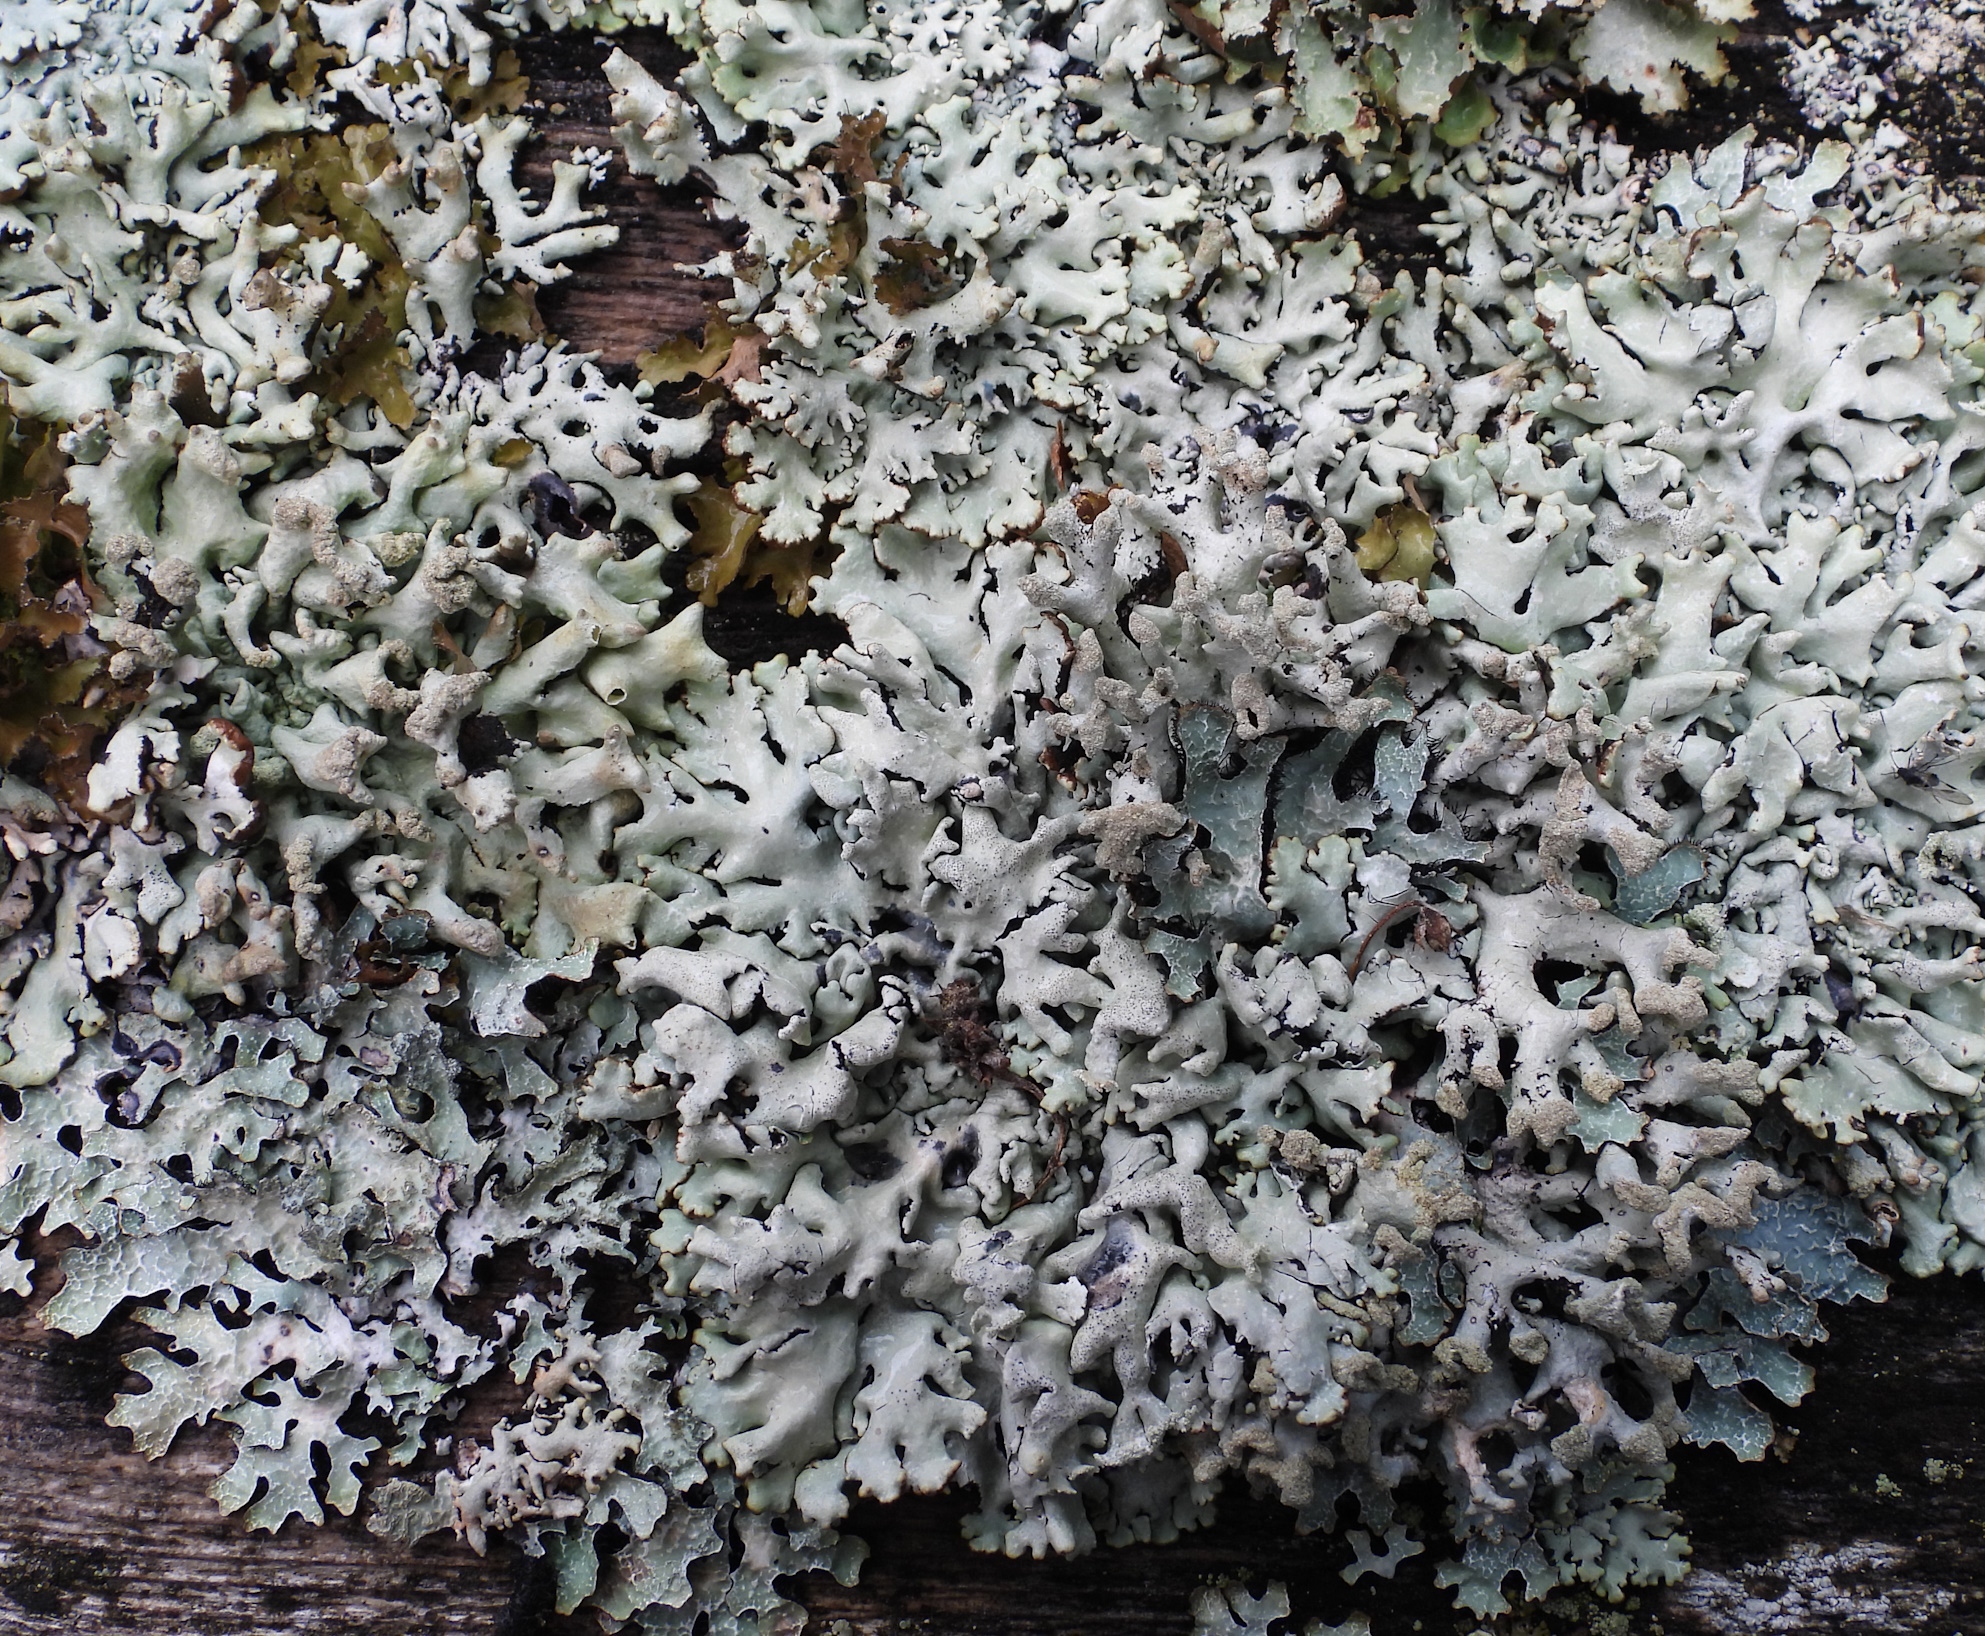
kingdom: Fungi
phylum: Ascomycota
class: Lecanoromycetes
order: Lecanorales
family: Parmeliaceae
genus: Hypogymnia
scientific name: Hypogymnia tubulosa
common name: Powder-headed tube lichen
